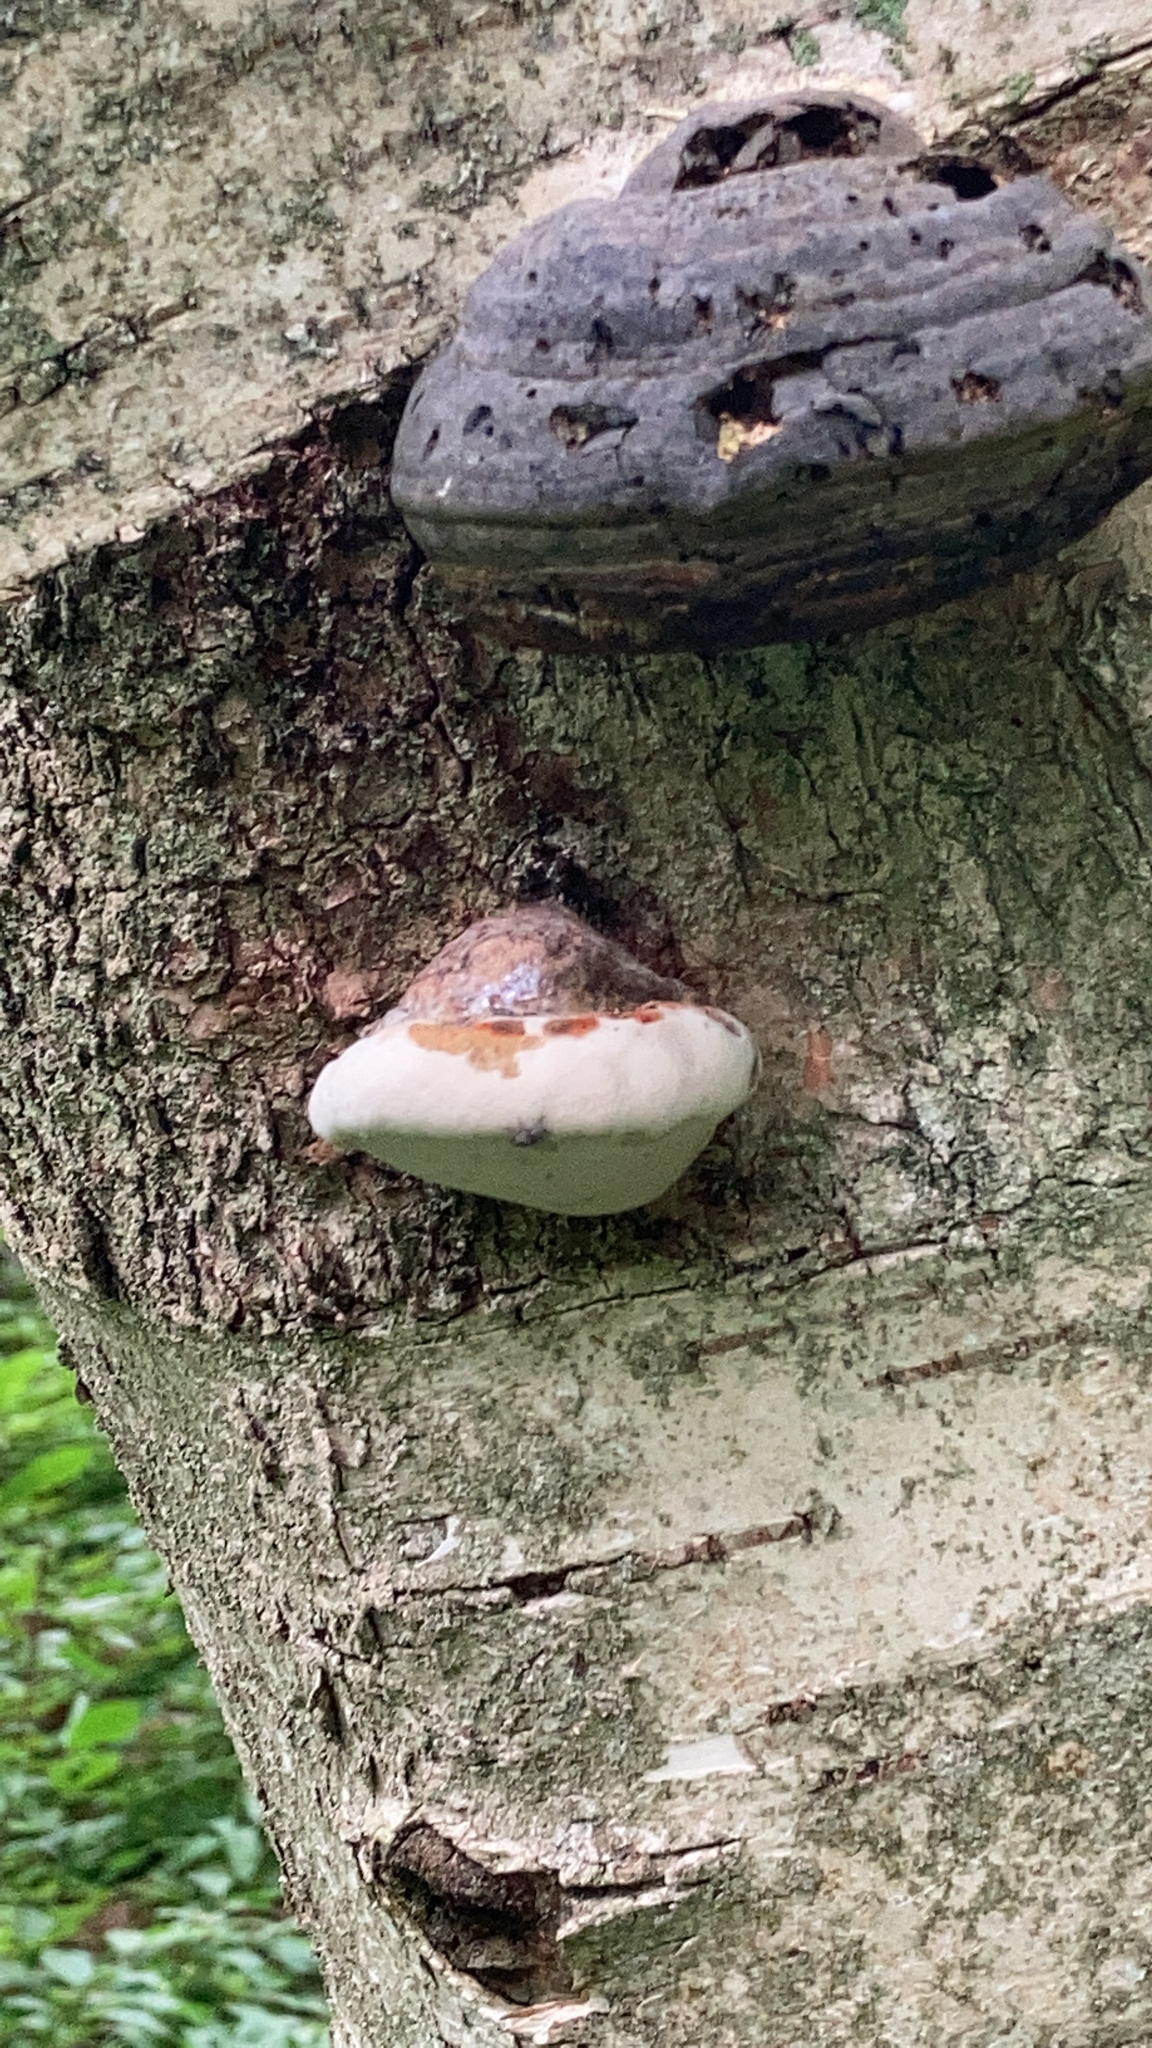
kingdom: Fungi
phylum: Basidiomycota
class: Agaricomycetes
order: Polyporales
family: Fomitopsidaceae
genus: Fomitopsis
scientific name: Fomitopsis pinicola
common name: Red-belted bracket
